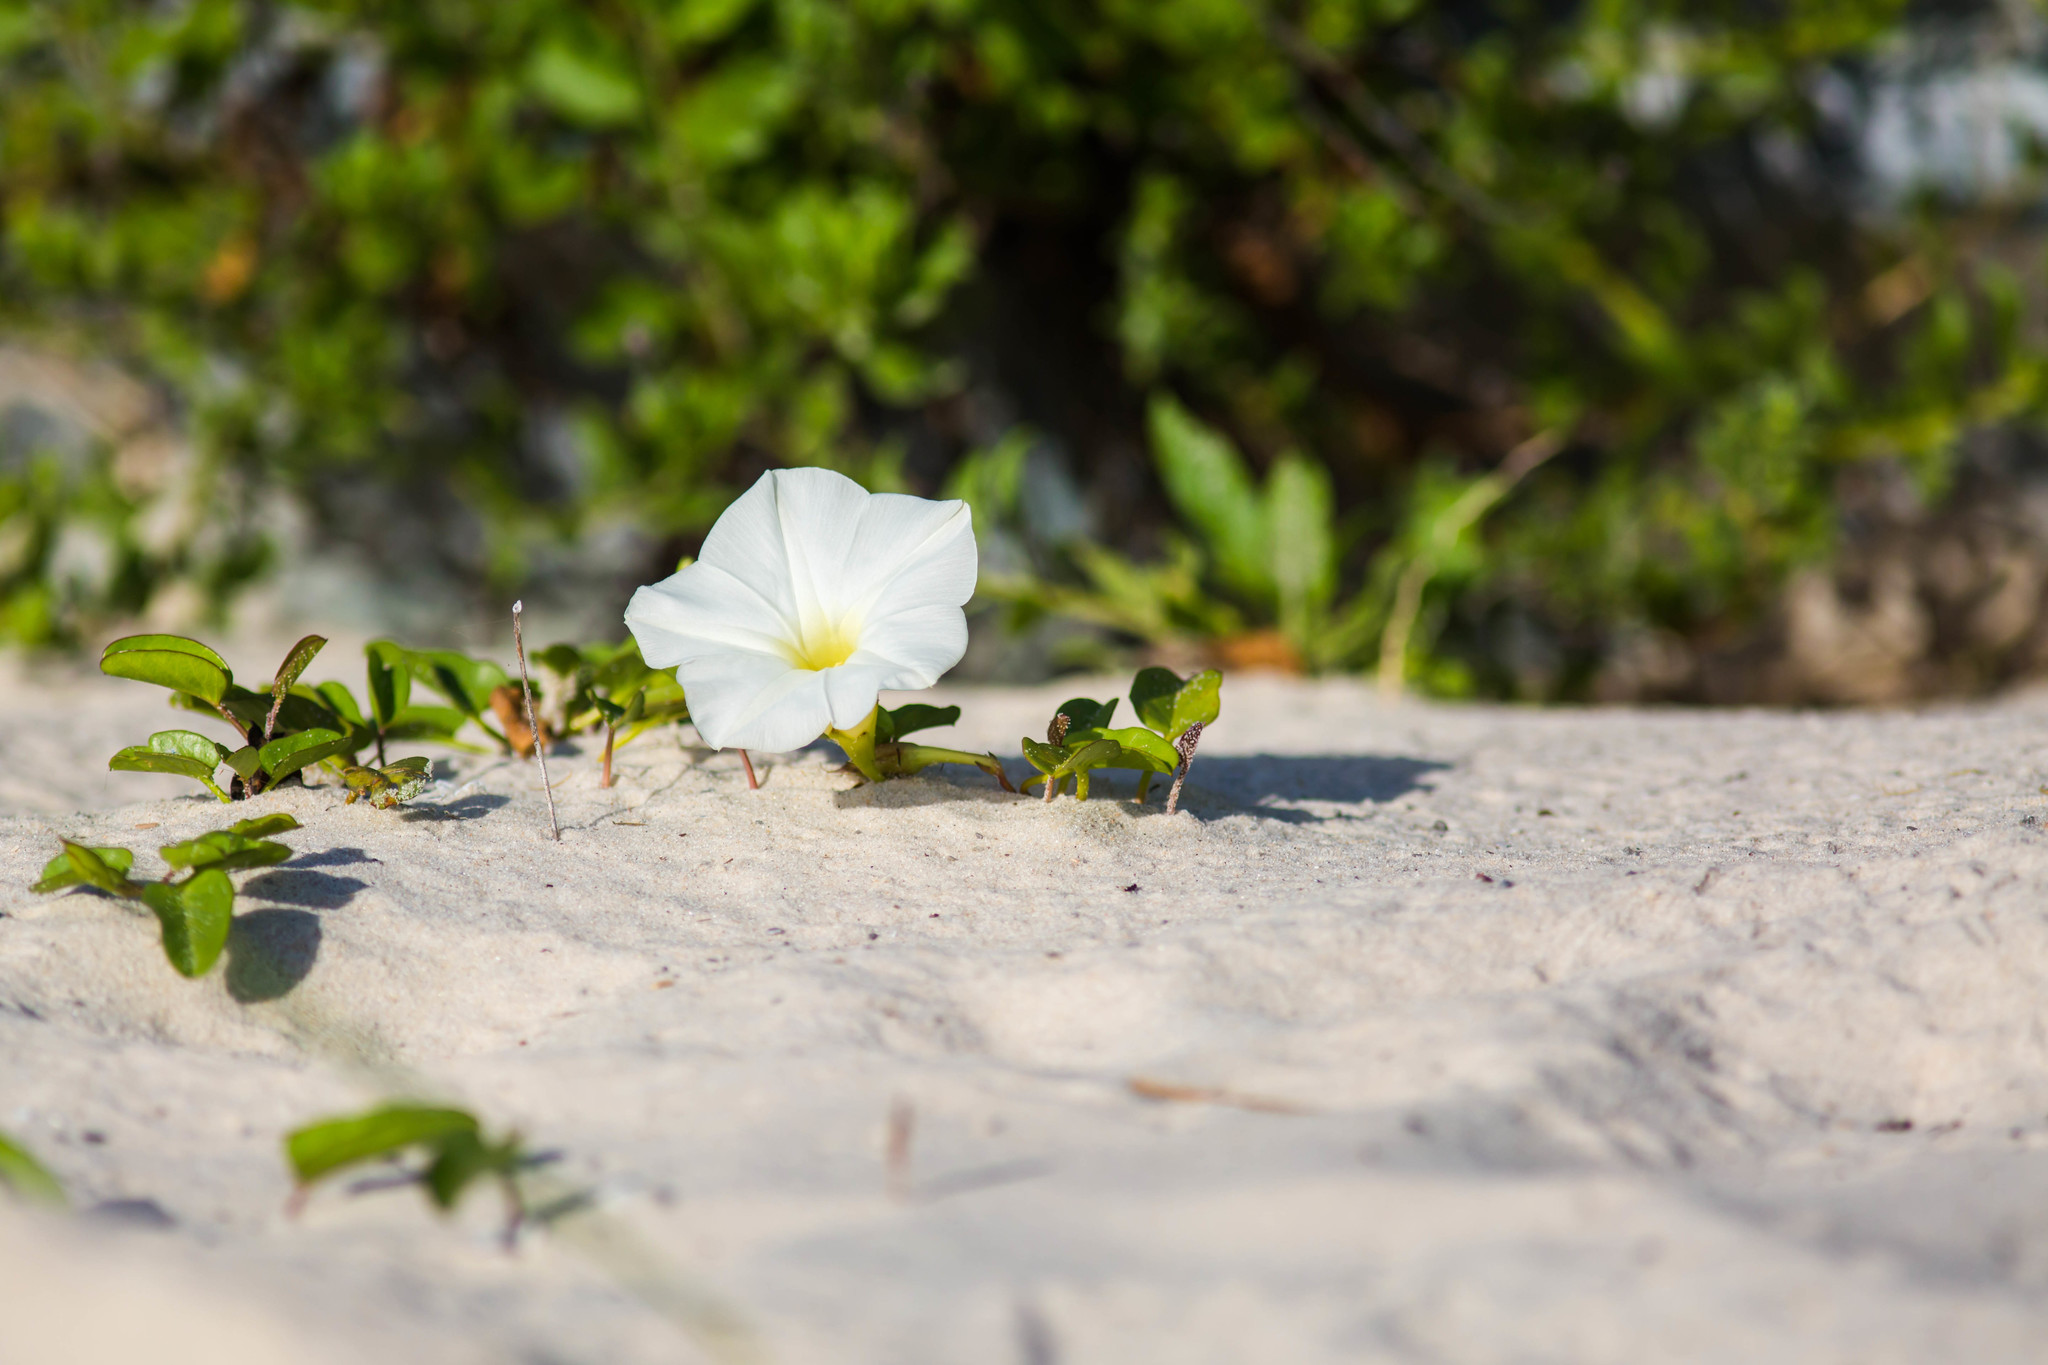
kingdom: Plantae
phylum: Tracheophyta
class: Magnoliopsida
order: Solanales
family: Convolvulaceae
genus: Ipomoea
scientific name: Ipomoea imperati
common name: Fiddle-leaf morning-glory
